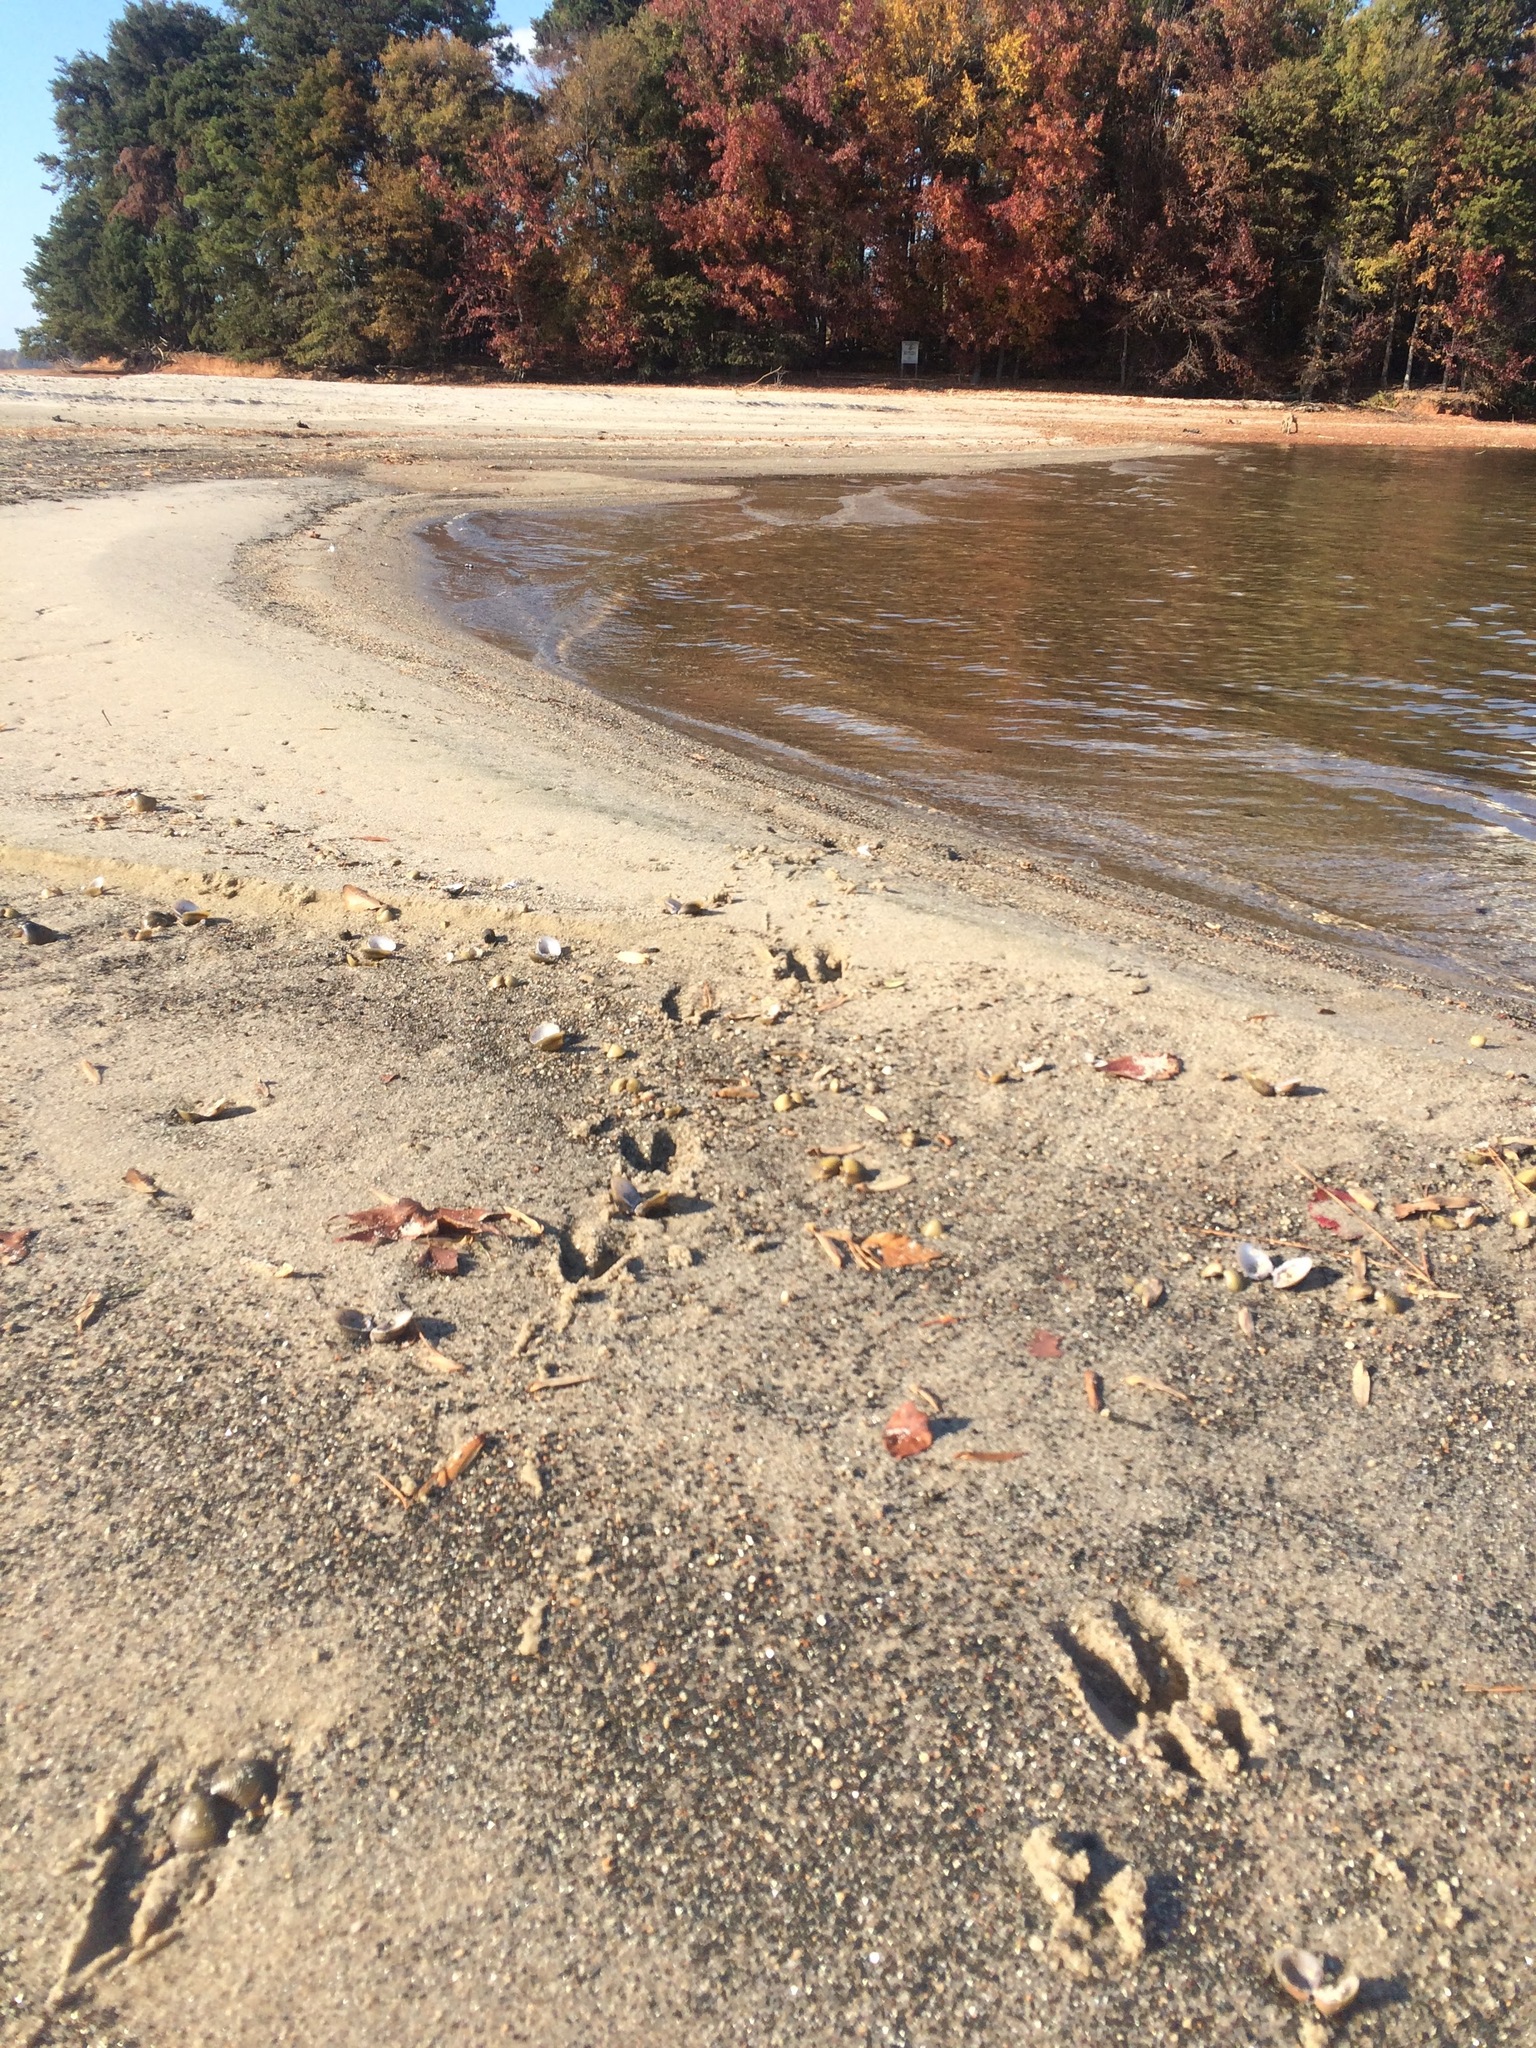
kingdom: Animalia
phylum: Chordata
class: Mammalia
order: Artiodactyla
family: Cervidae
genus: Odocoileus
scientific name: Odocoileus virginianus
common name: White-tailed deer
